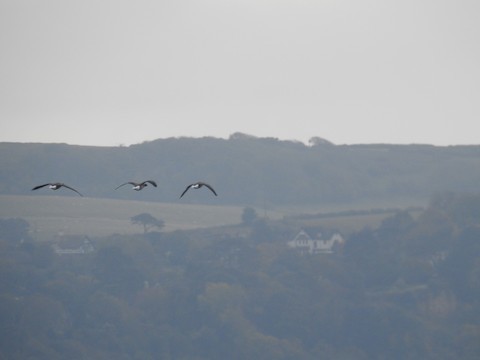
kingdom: Animalia
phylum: Chordata
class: Aves
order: Anseriformes
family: Anatidae
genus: Branta
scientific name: Branta bernicla
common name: Brant goose
